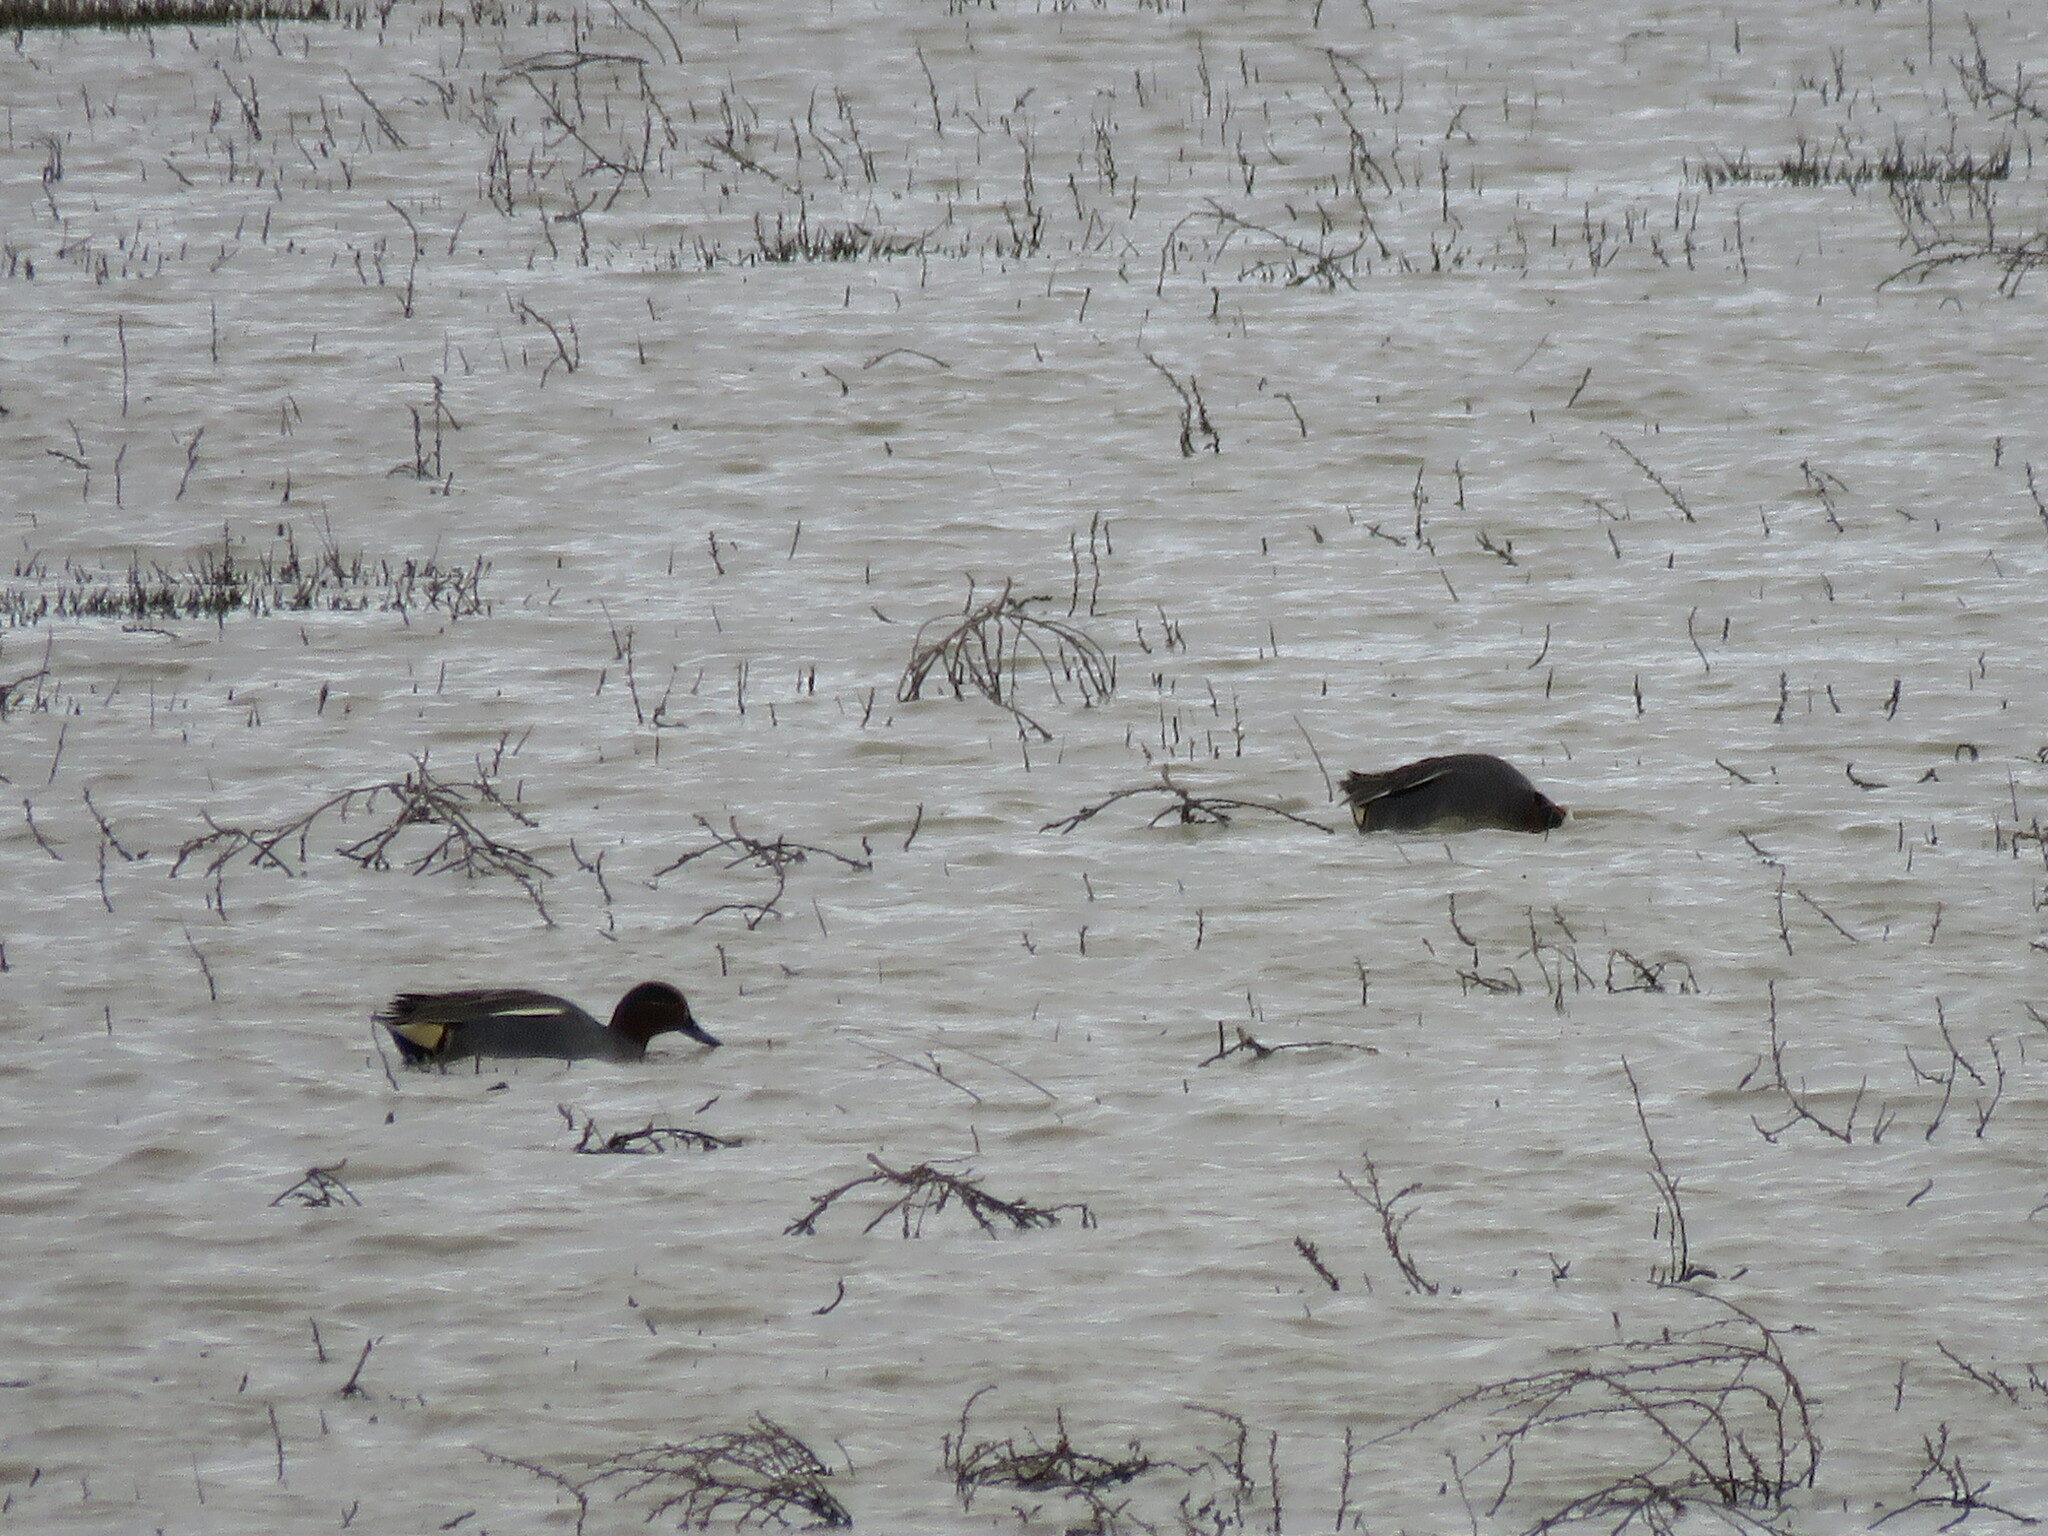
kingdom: Animalia
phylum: Chordata
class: Aves
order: Anseriformes
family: Anatidae
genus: Anas
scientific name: Anas crecca
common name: Eurasian teal
